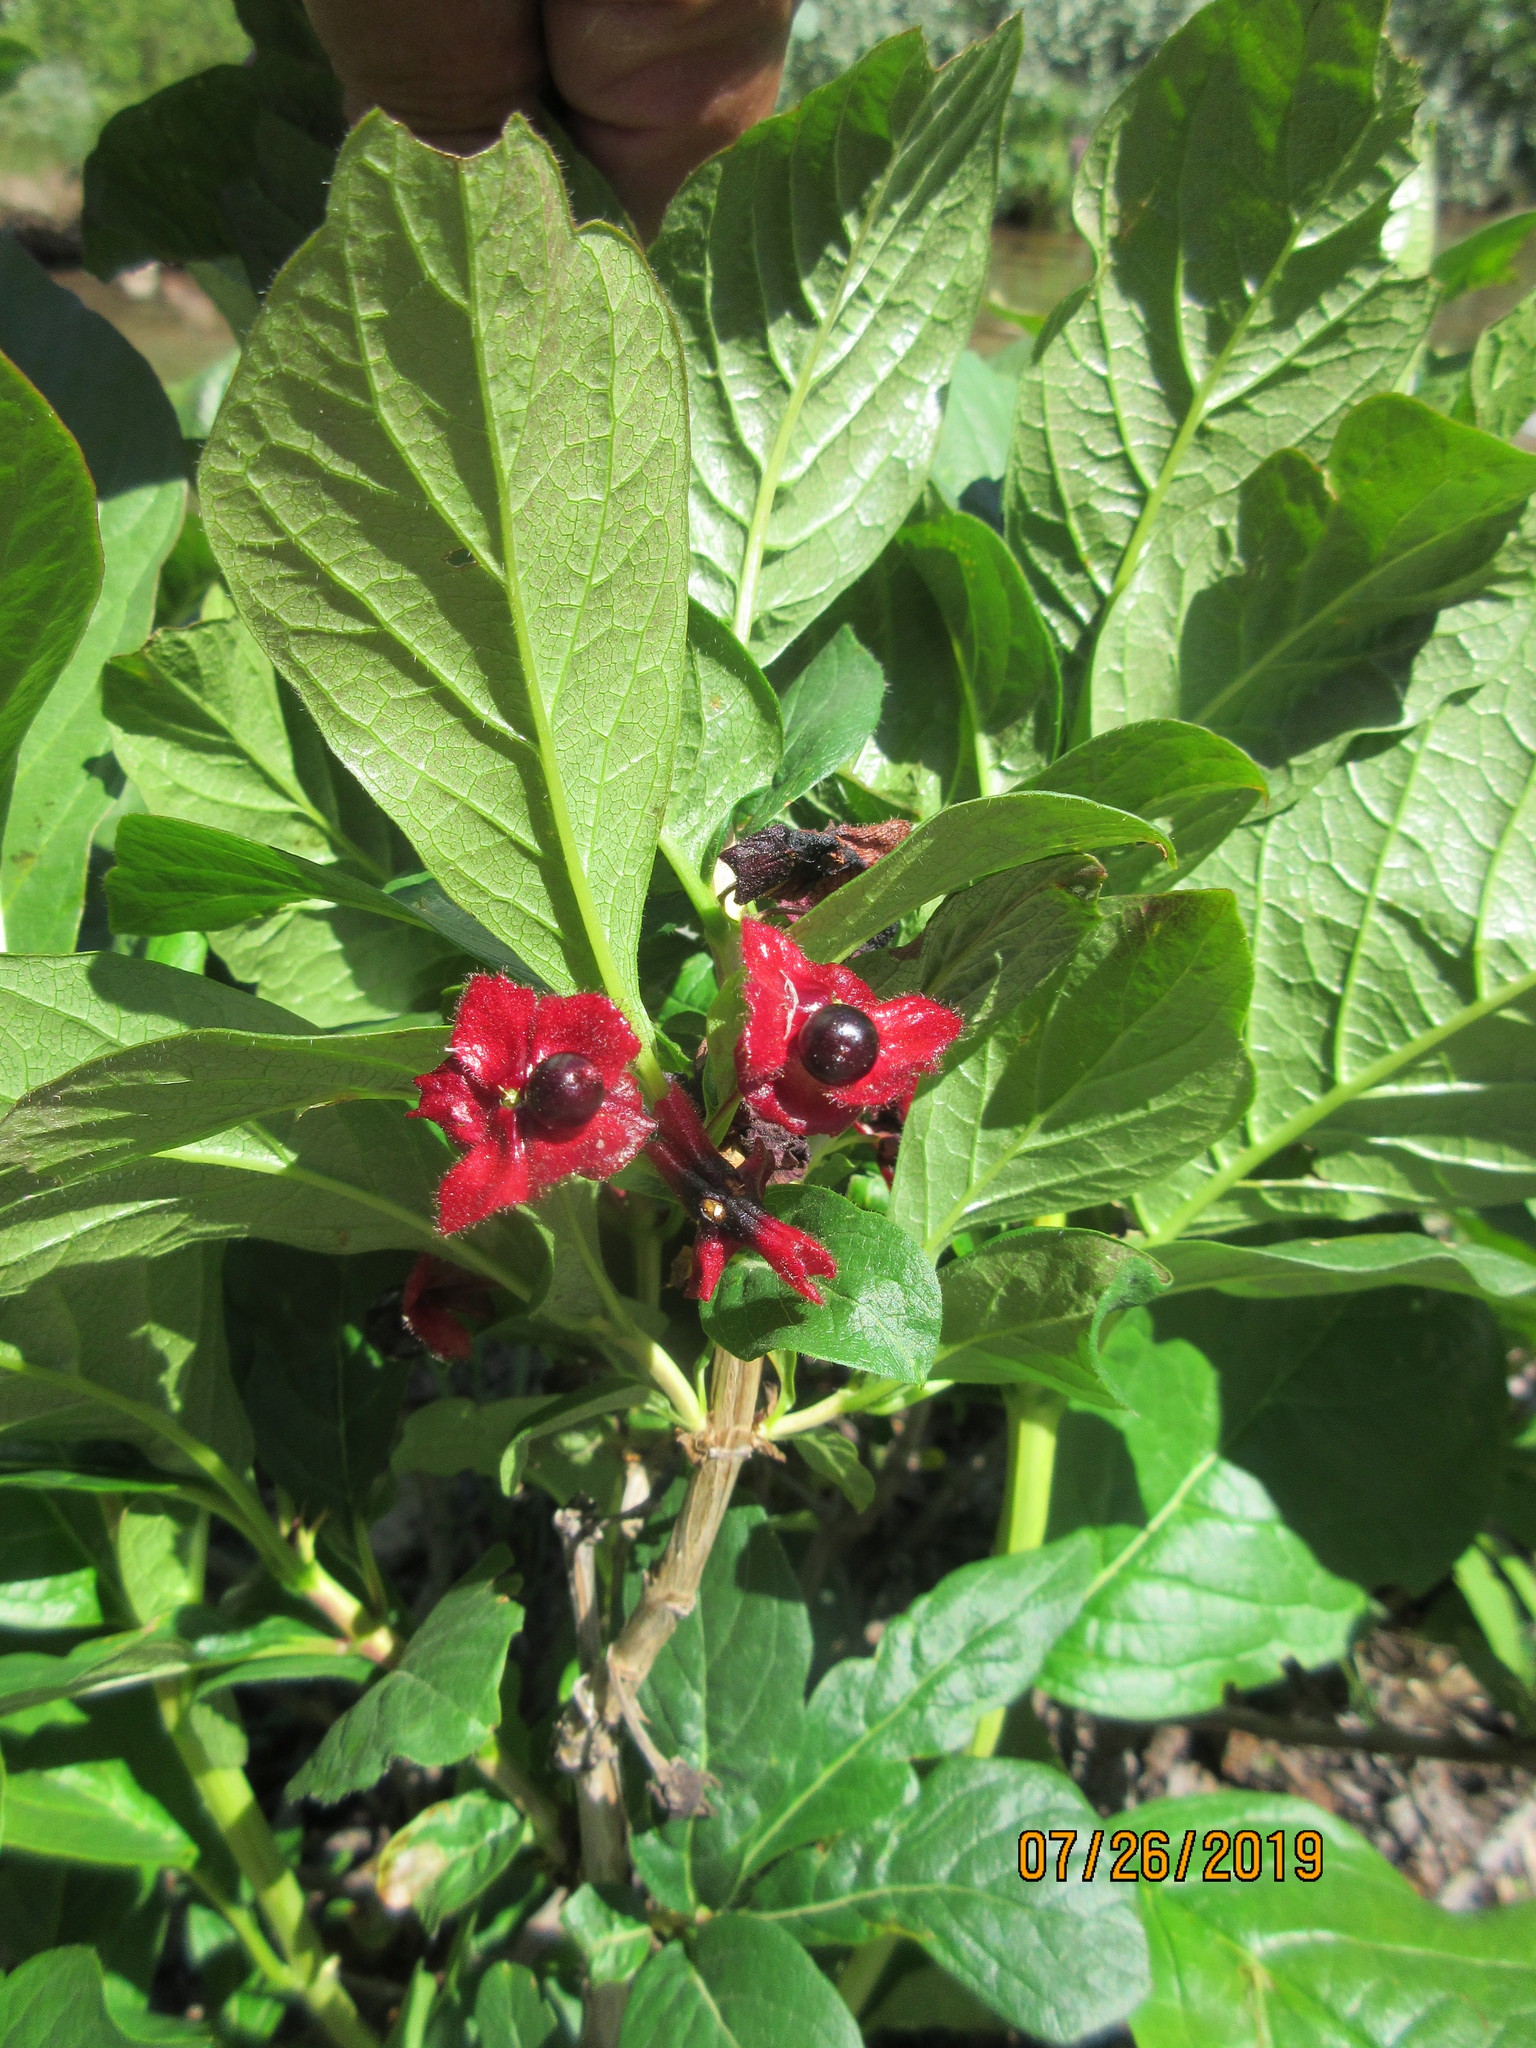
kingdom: Plantae
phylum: Tracheophyta
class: Magnoliopsida
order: Dipsacales
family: Caprifoliaceae
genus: Lonicera
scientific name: Lonicera involucrata
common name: Californian honeysuckle
